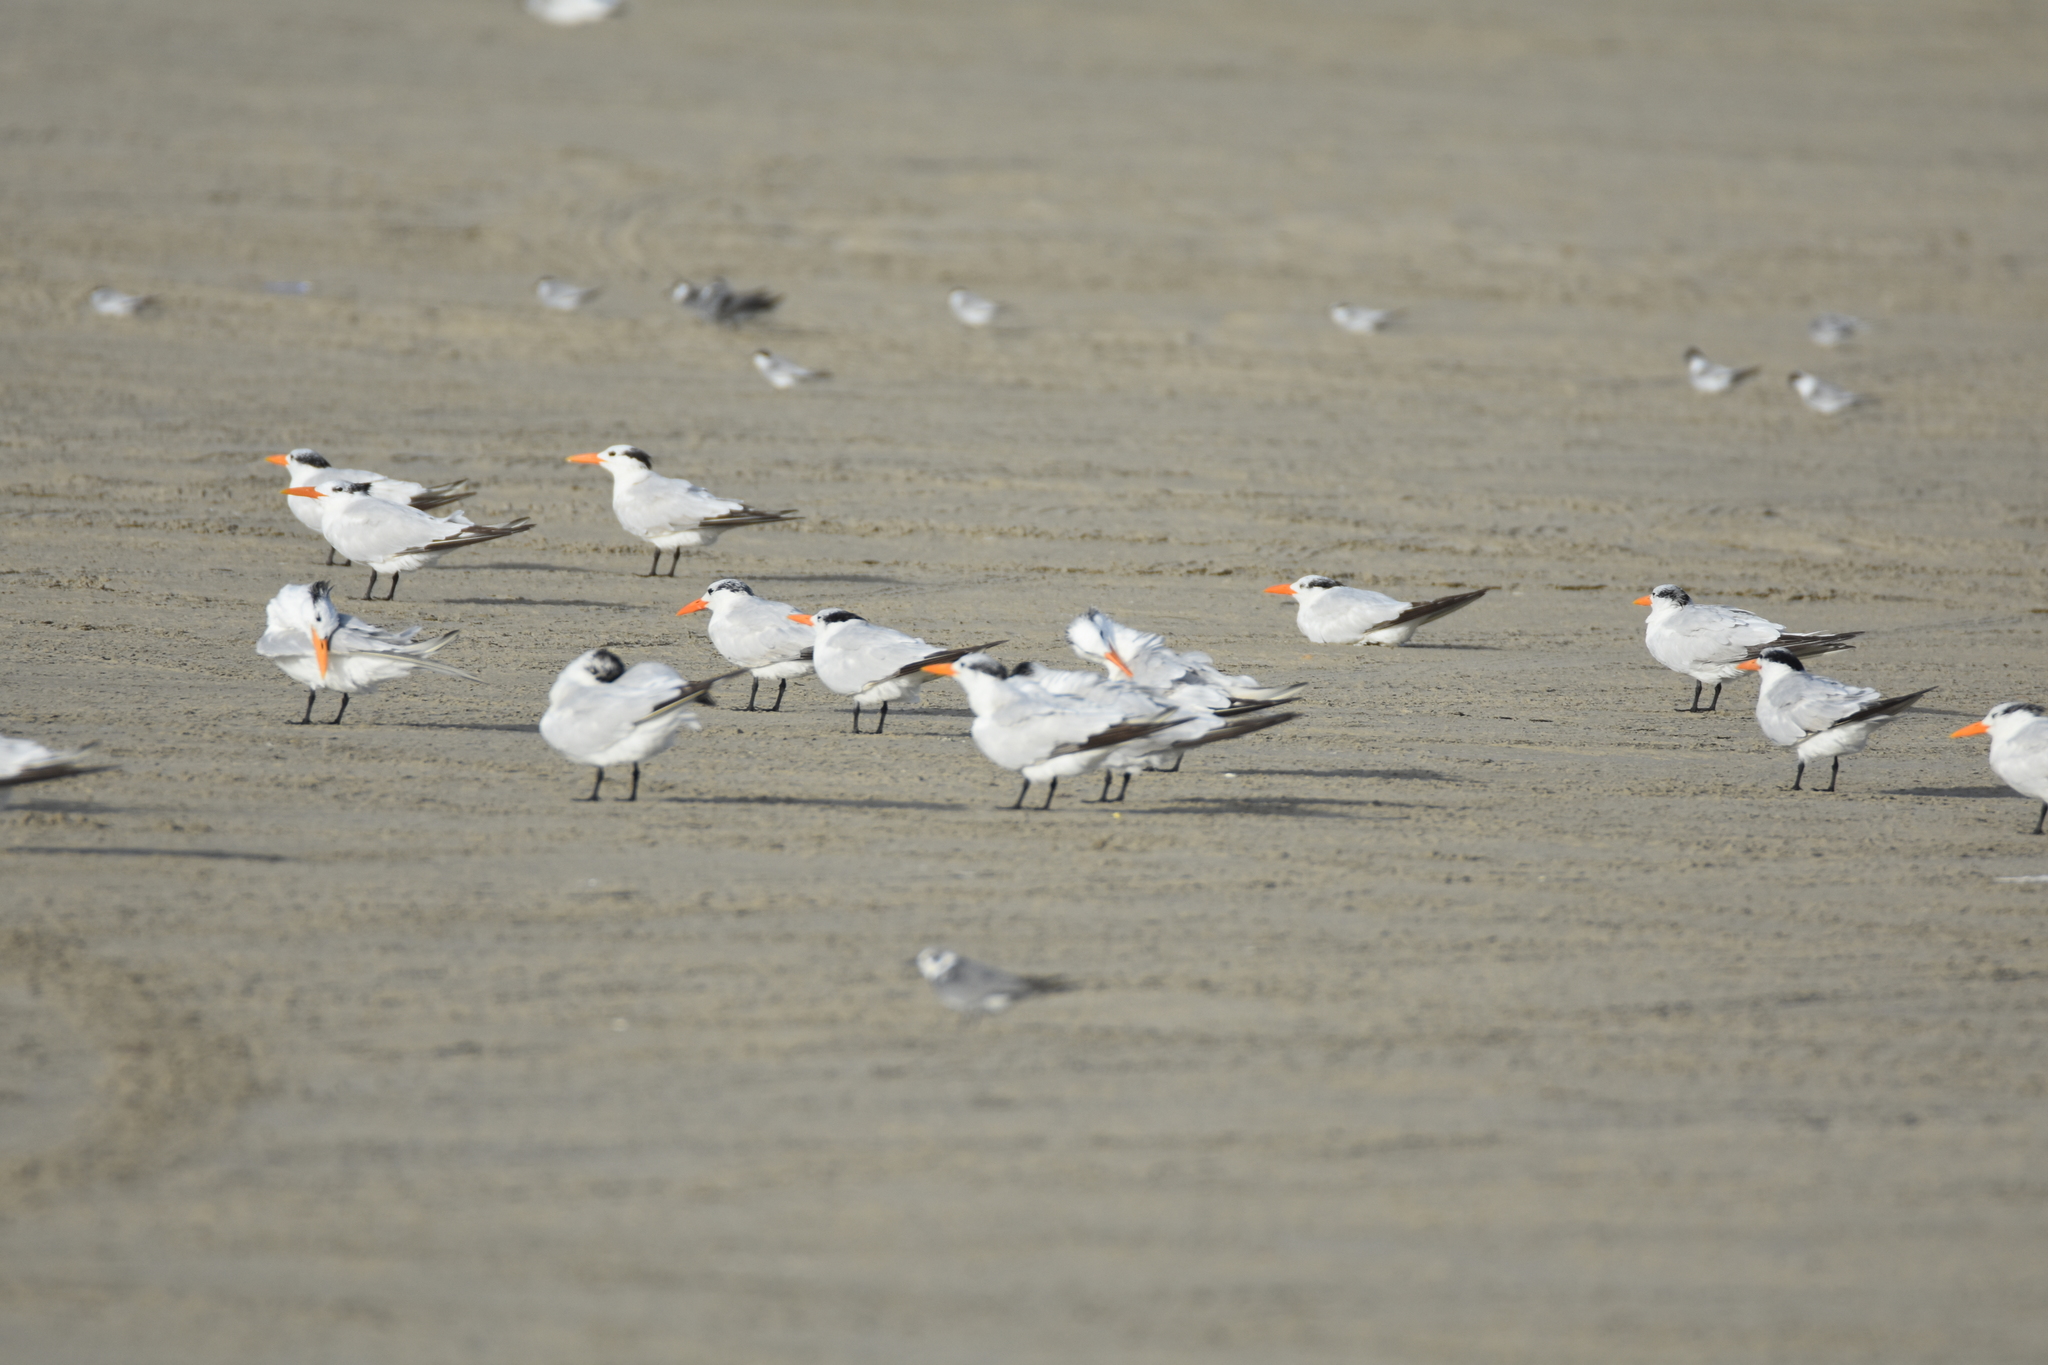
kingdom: Animalia
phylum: Chordata
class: Aves
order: Charadriiformes
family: Laridae
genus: Thalasseus
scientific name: Thalasseus maximus
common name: Royal tern
